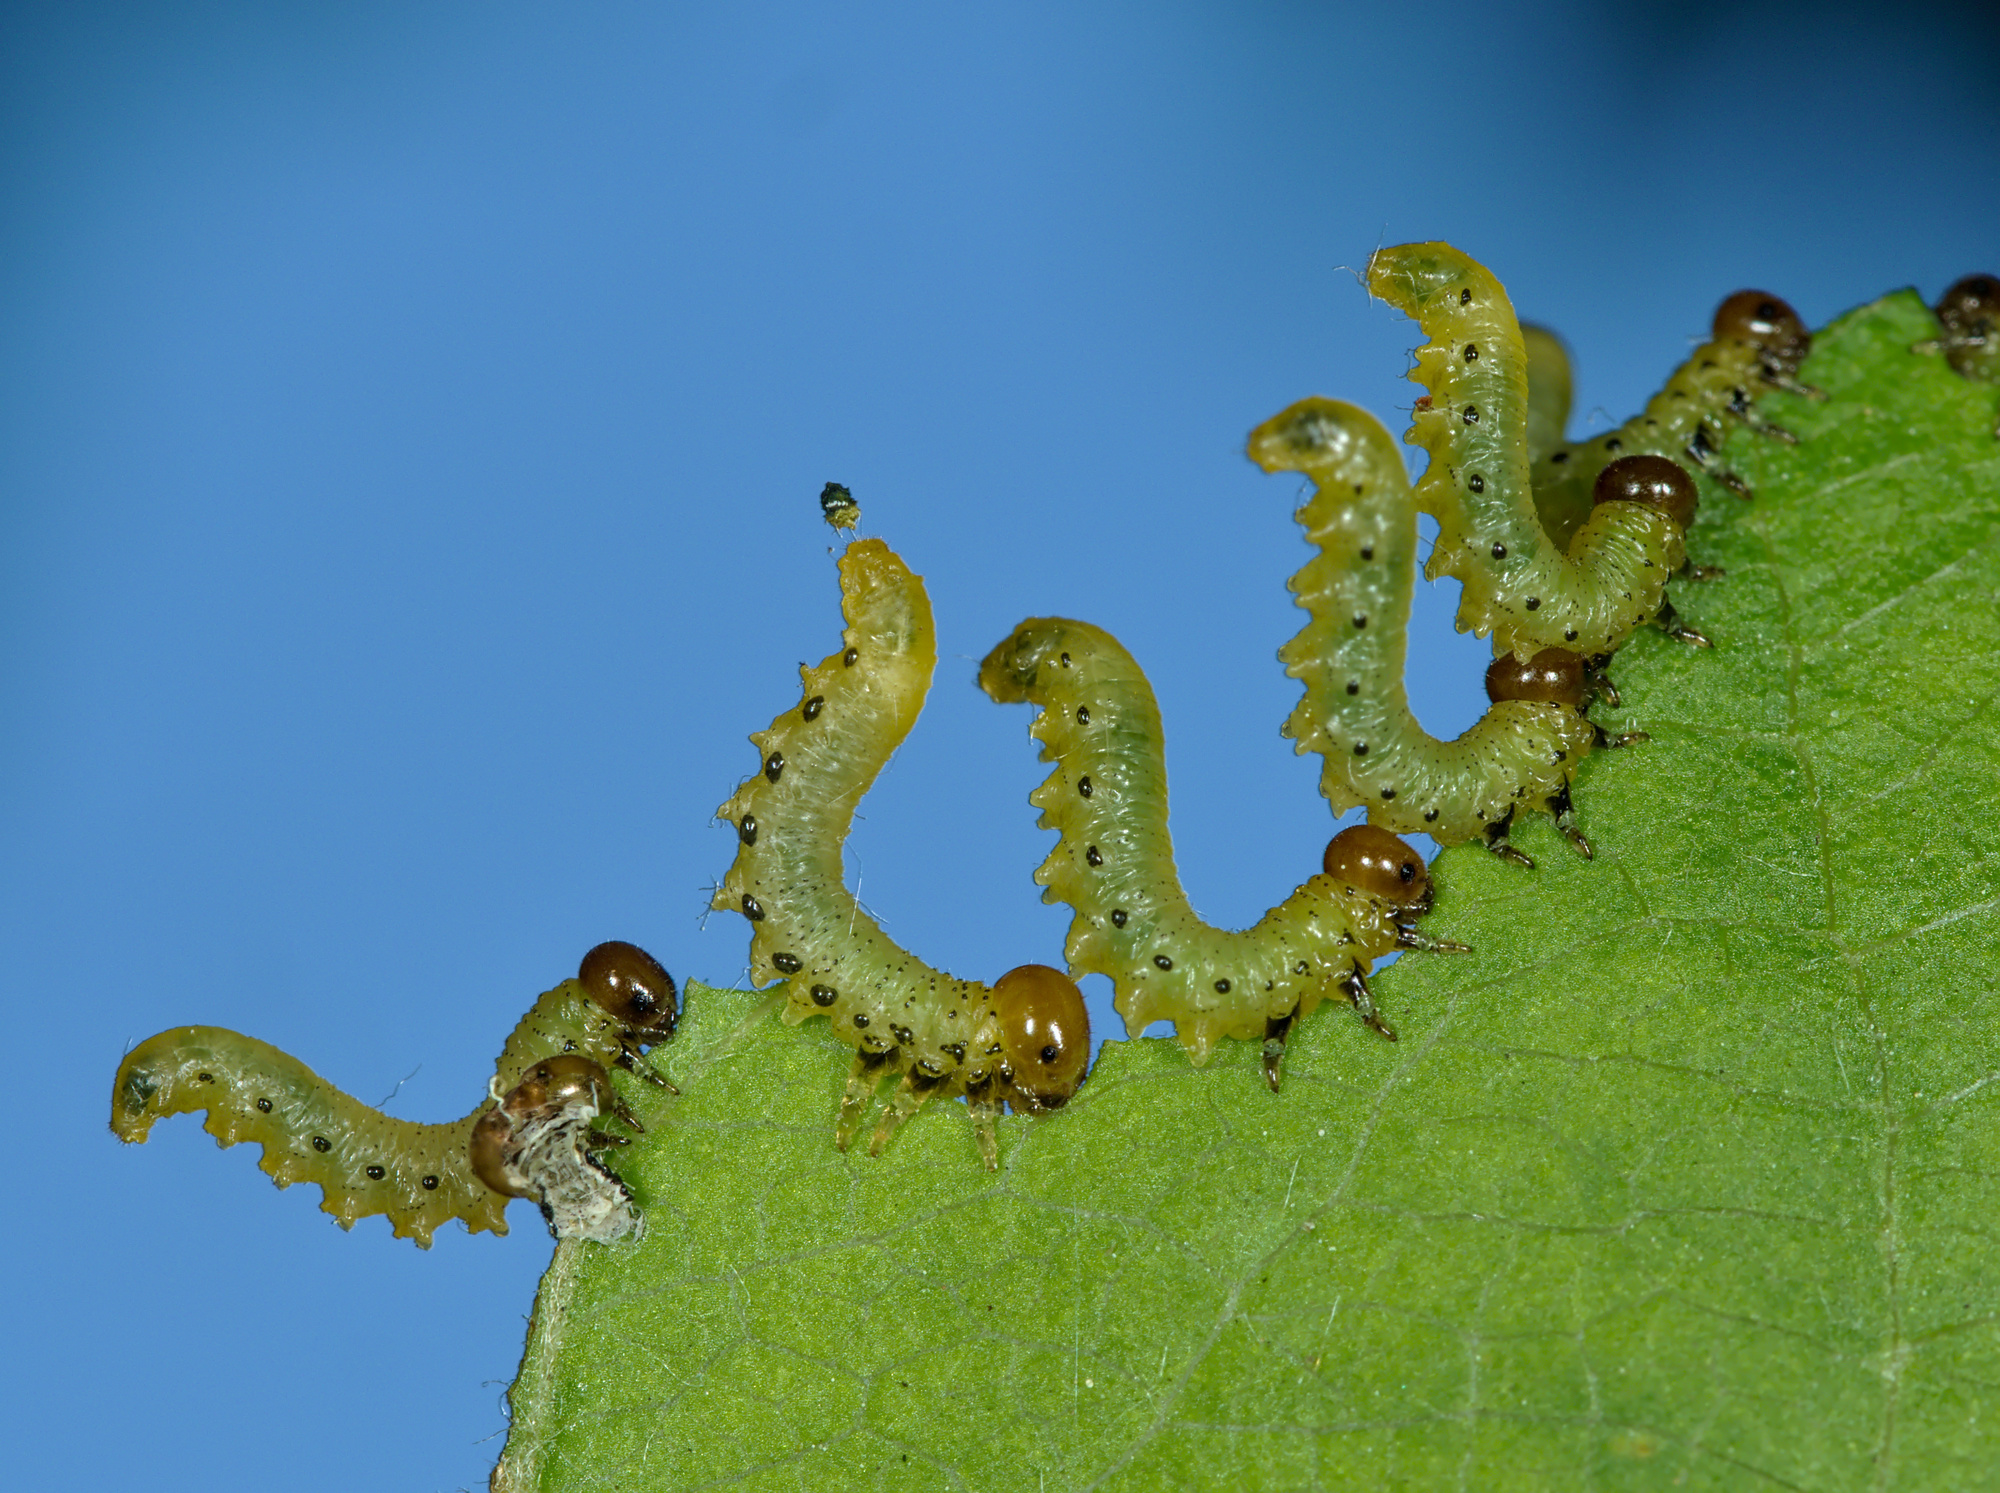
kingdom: Animalia
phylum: Arthropoda
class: Insecta
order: Hymenoptera
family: Tenthredinidae
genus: Pristiphora
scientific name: Pristiphora maesta
